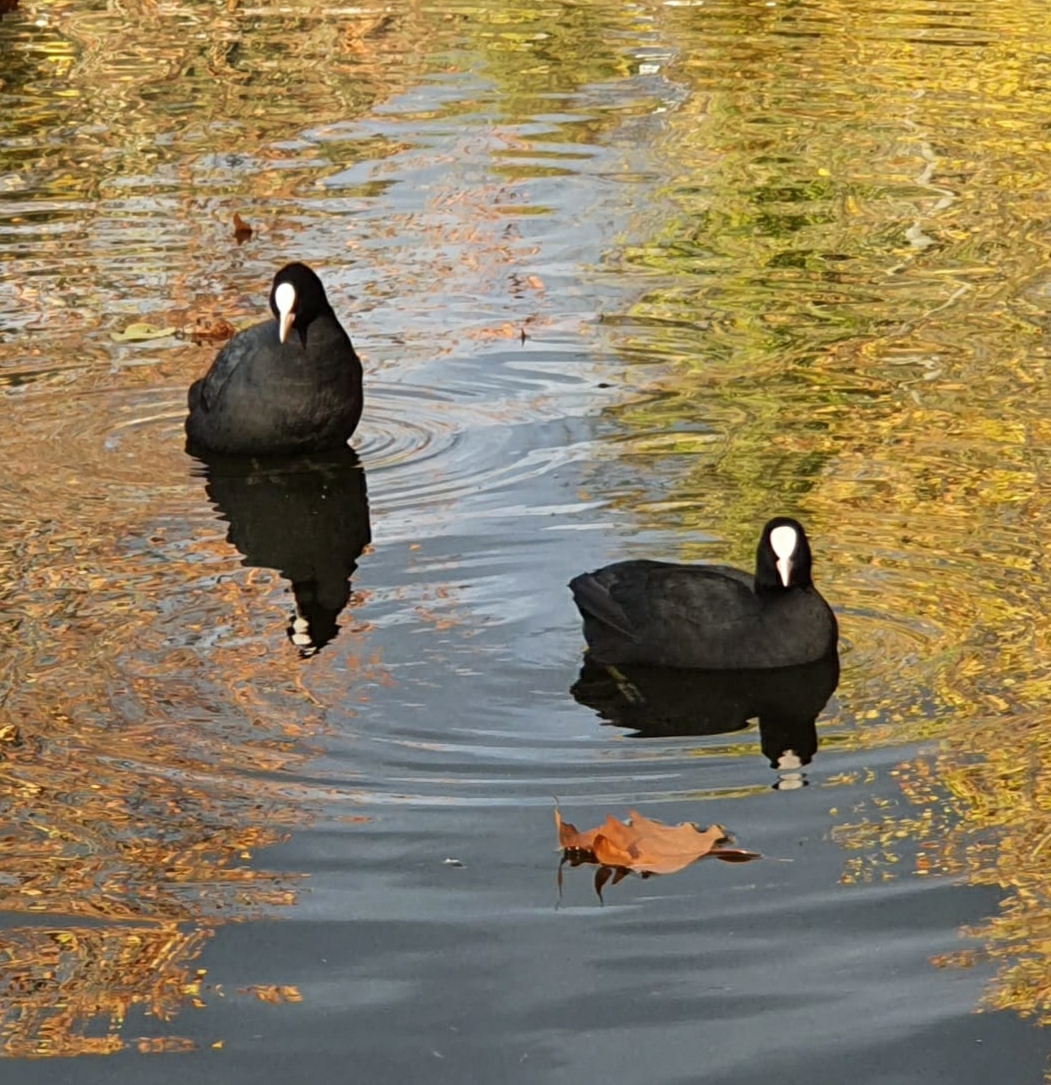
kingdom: Animalia
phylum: Chordata
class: Aves
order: Gruiformes
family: Rallidae
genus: Fulica
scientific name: Fulica atra
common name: Eurasian coot
